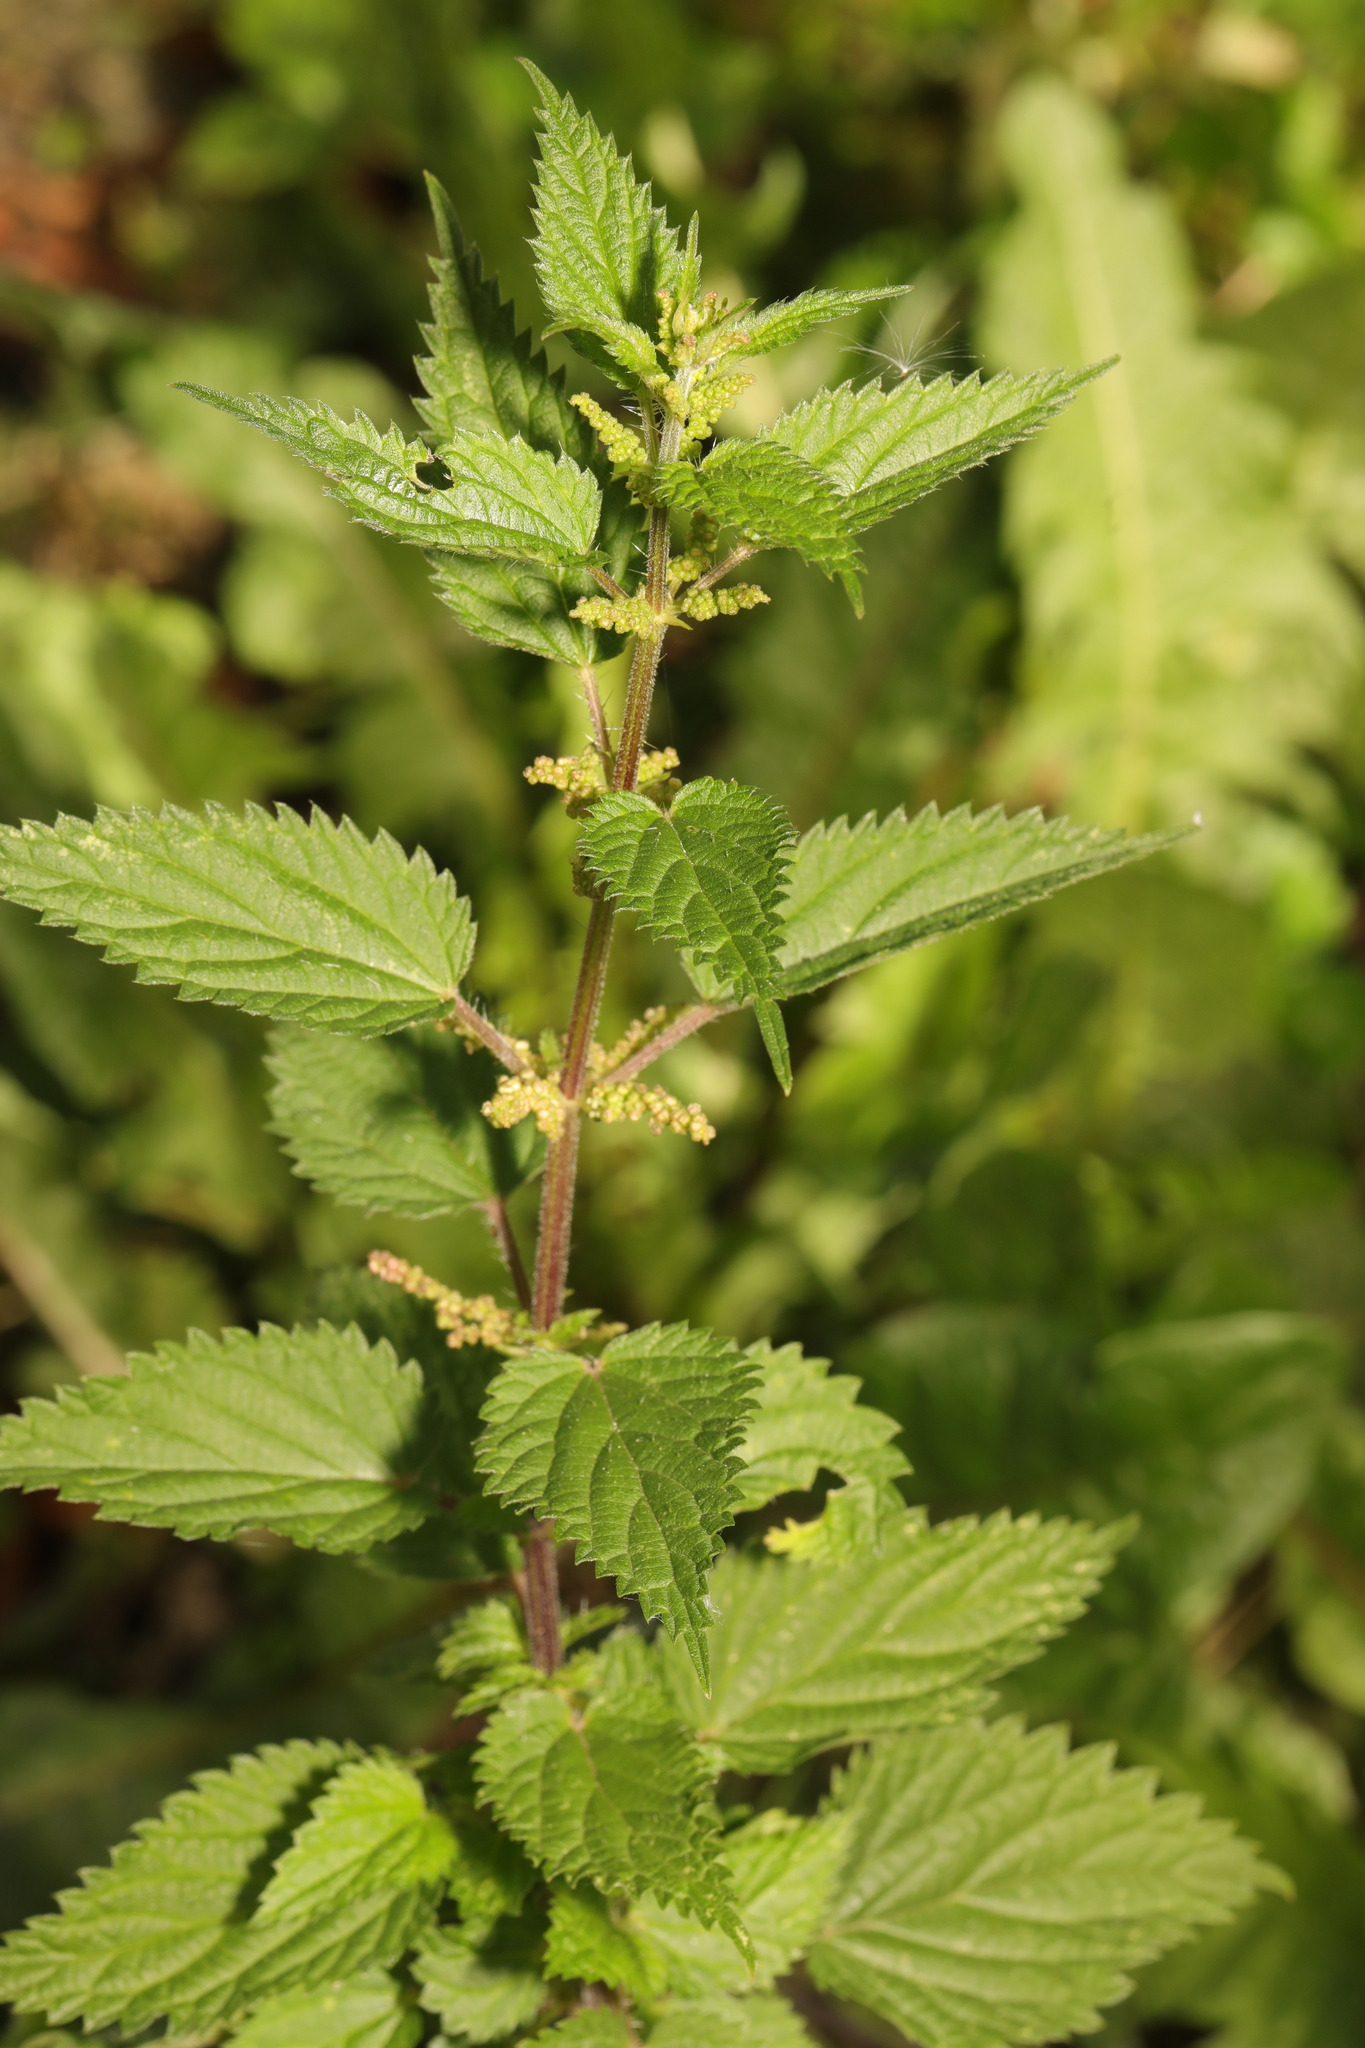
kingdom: Plantae
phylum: Tracheophyta
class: Magnoliopsida
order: Rosales
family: Urticaceae
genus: Urtica
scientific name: Urtica dioica
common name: Common nettle
